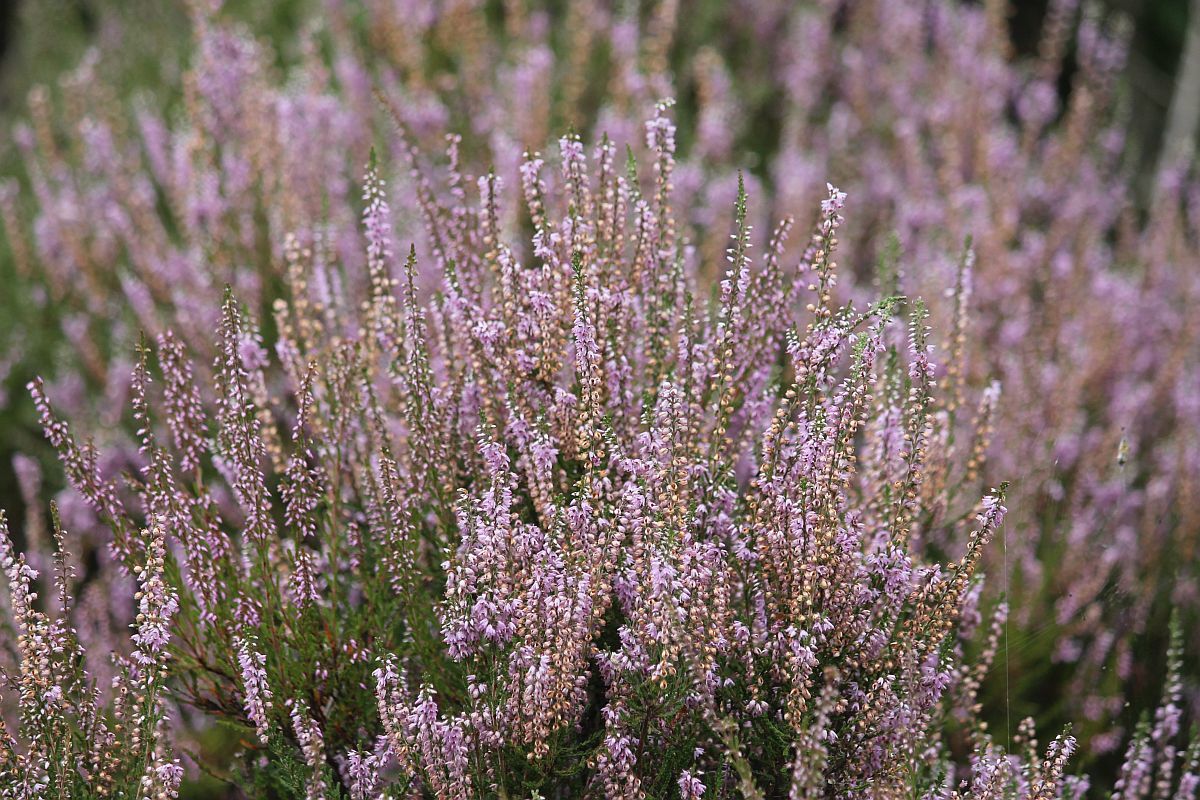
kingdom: Plantae
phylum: Tracheophyta
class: Magnoliopsida
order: Ericales
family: Ericaceae
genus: Calluna
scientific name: Calluna vulgaris
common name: Heather
